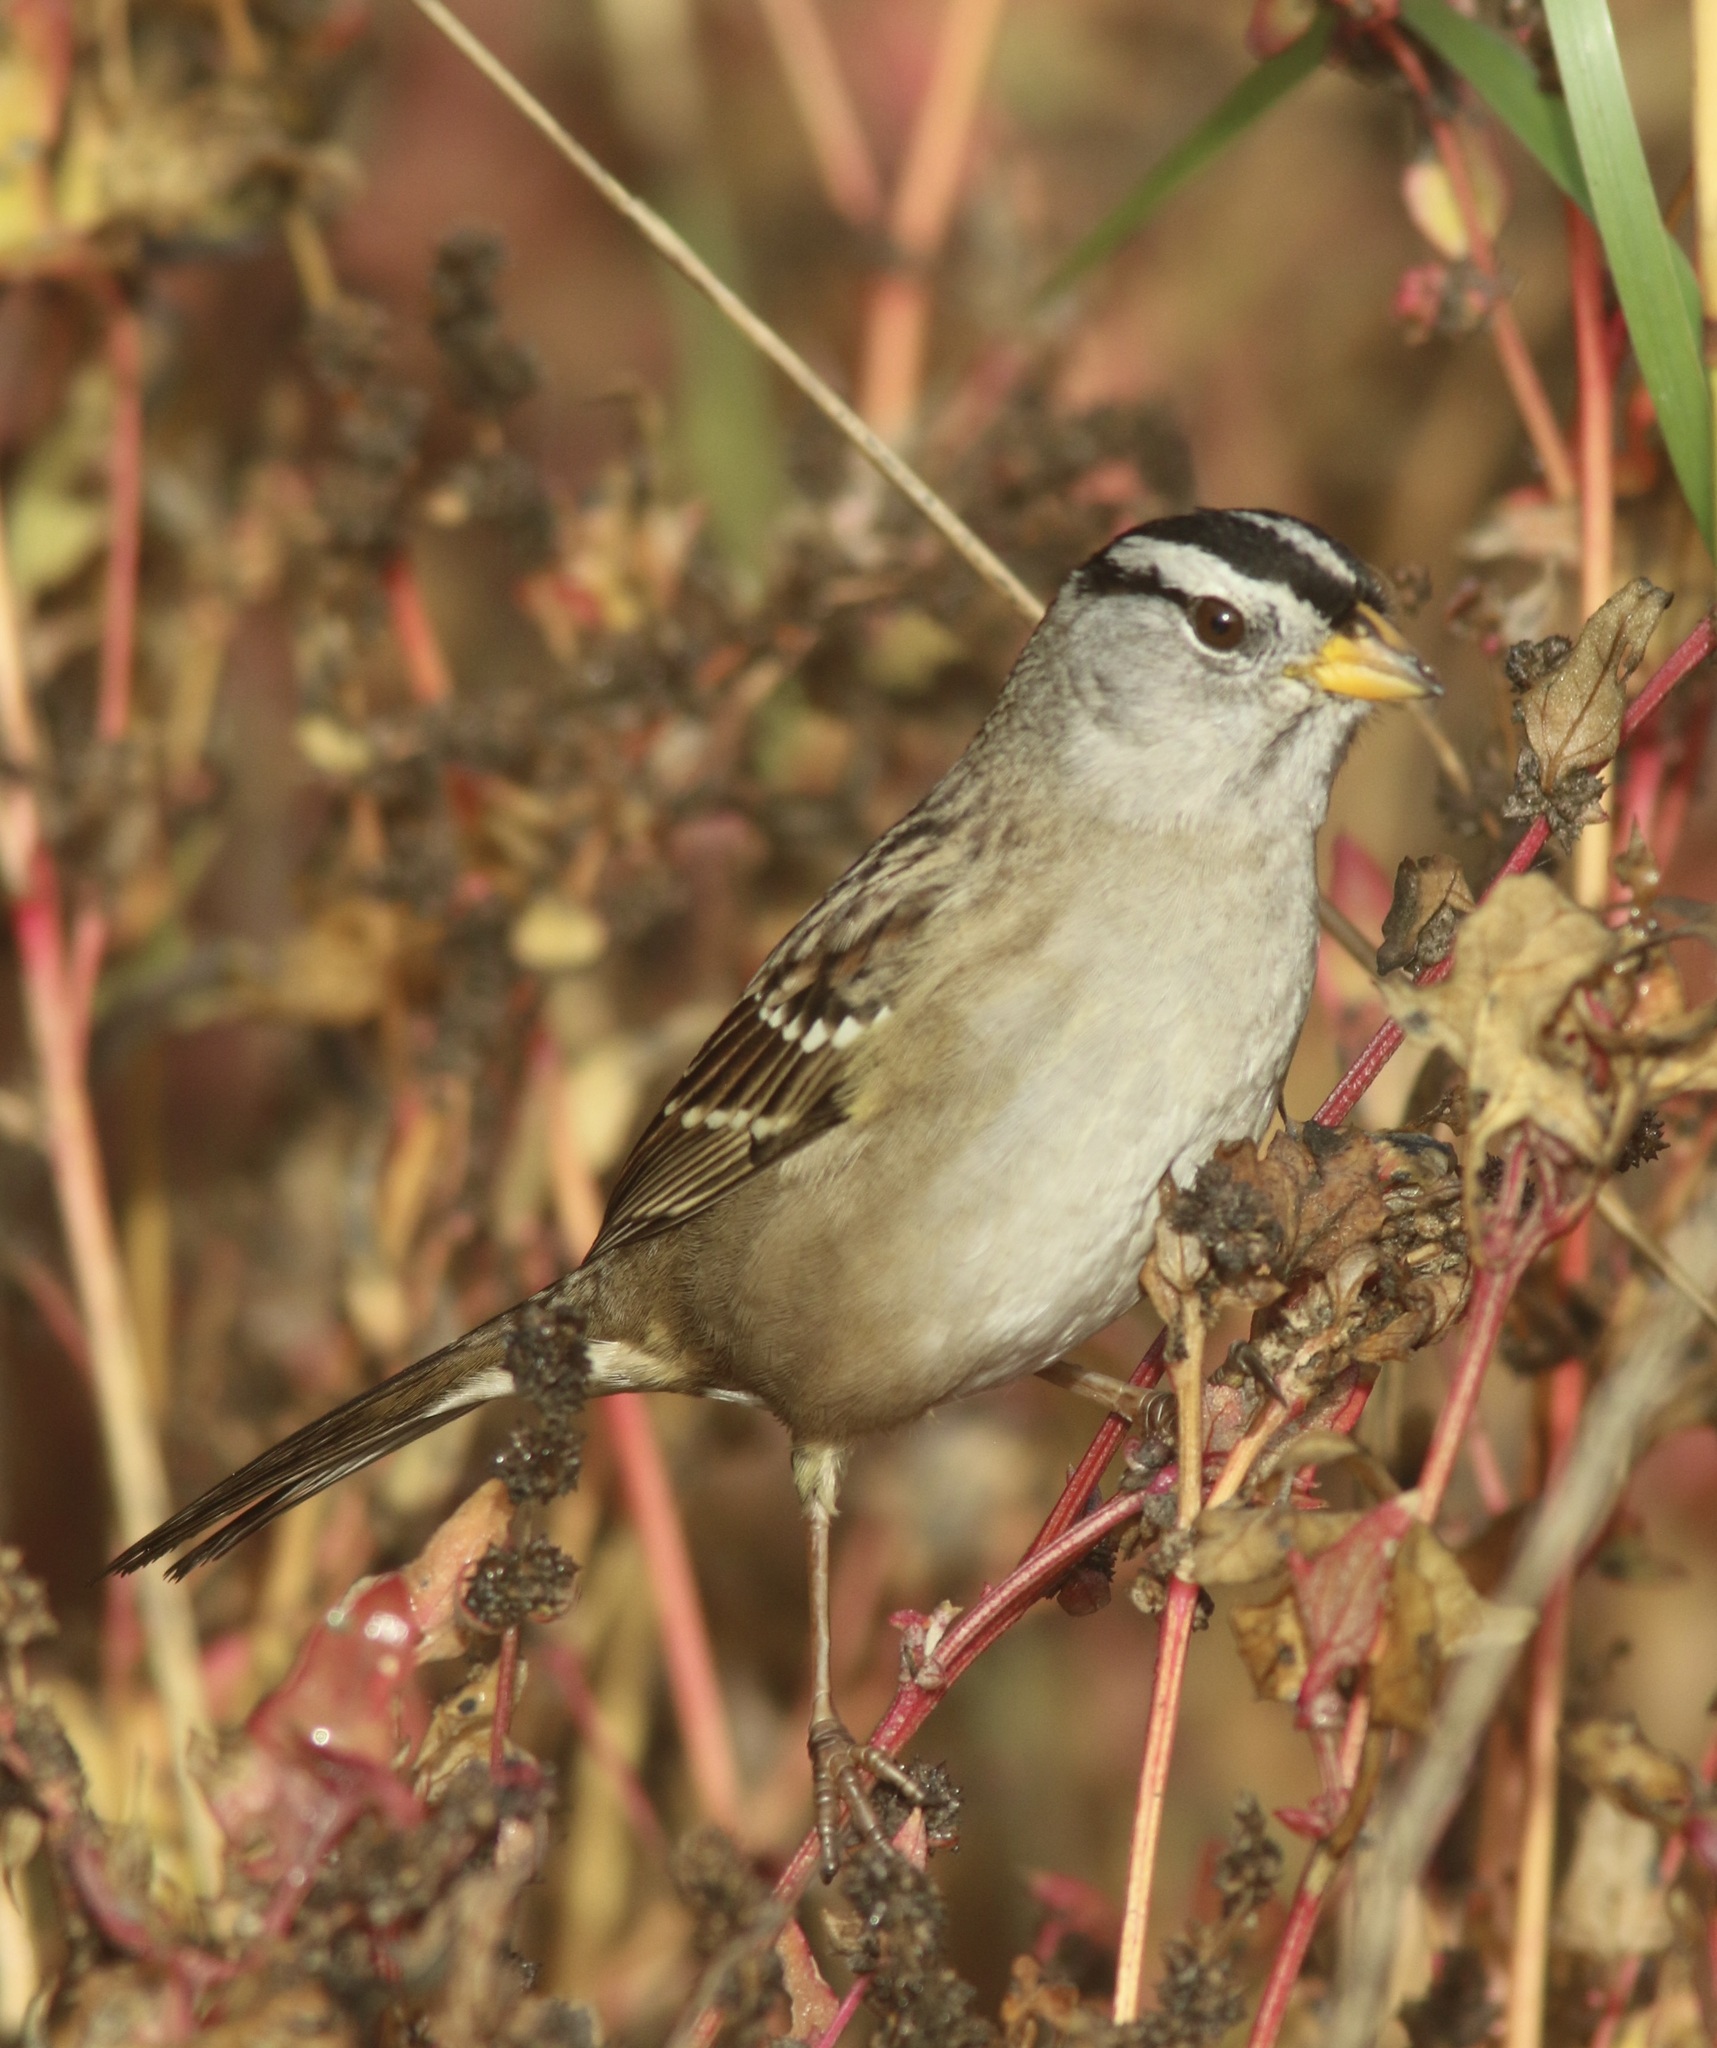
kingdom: Animalia
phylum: Chordata
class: Aves
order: Passeriformes
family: Passerellidae
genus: Zonotrichia
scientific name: Zonotrichia leucophrys
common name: White-crowned sparrow
